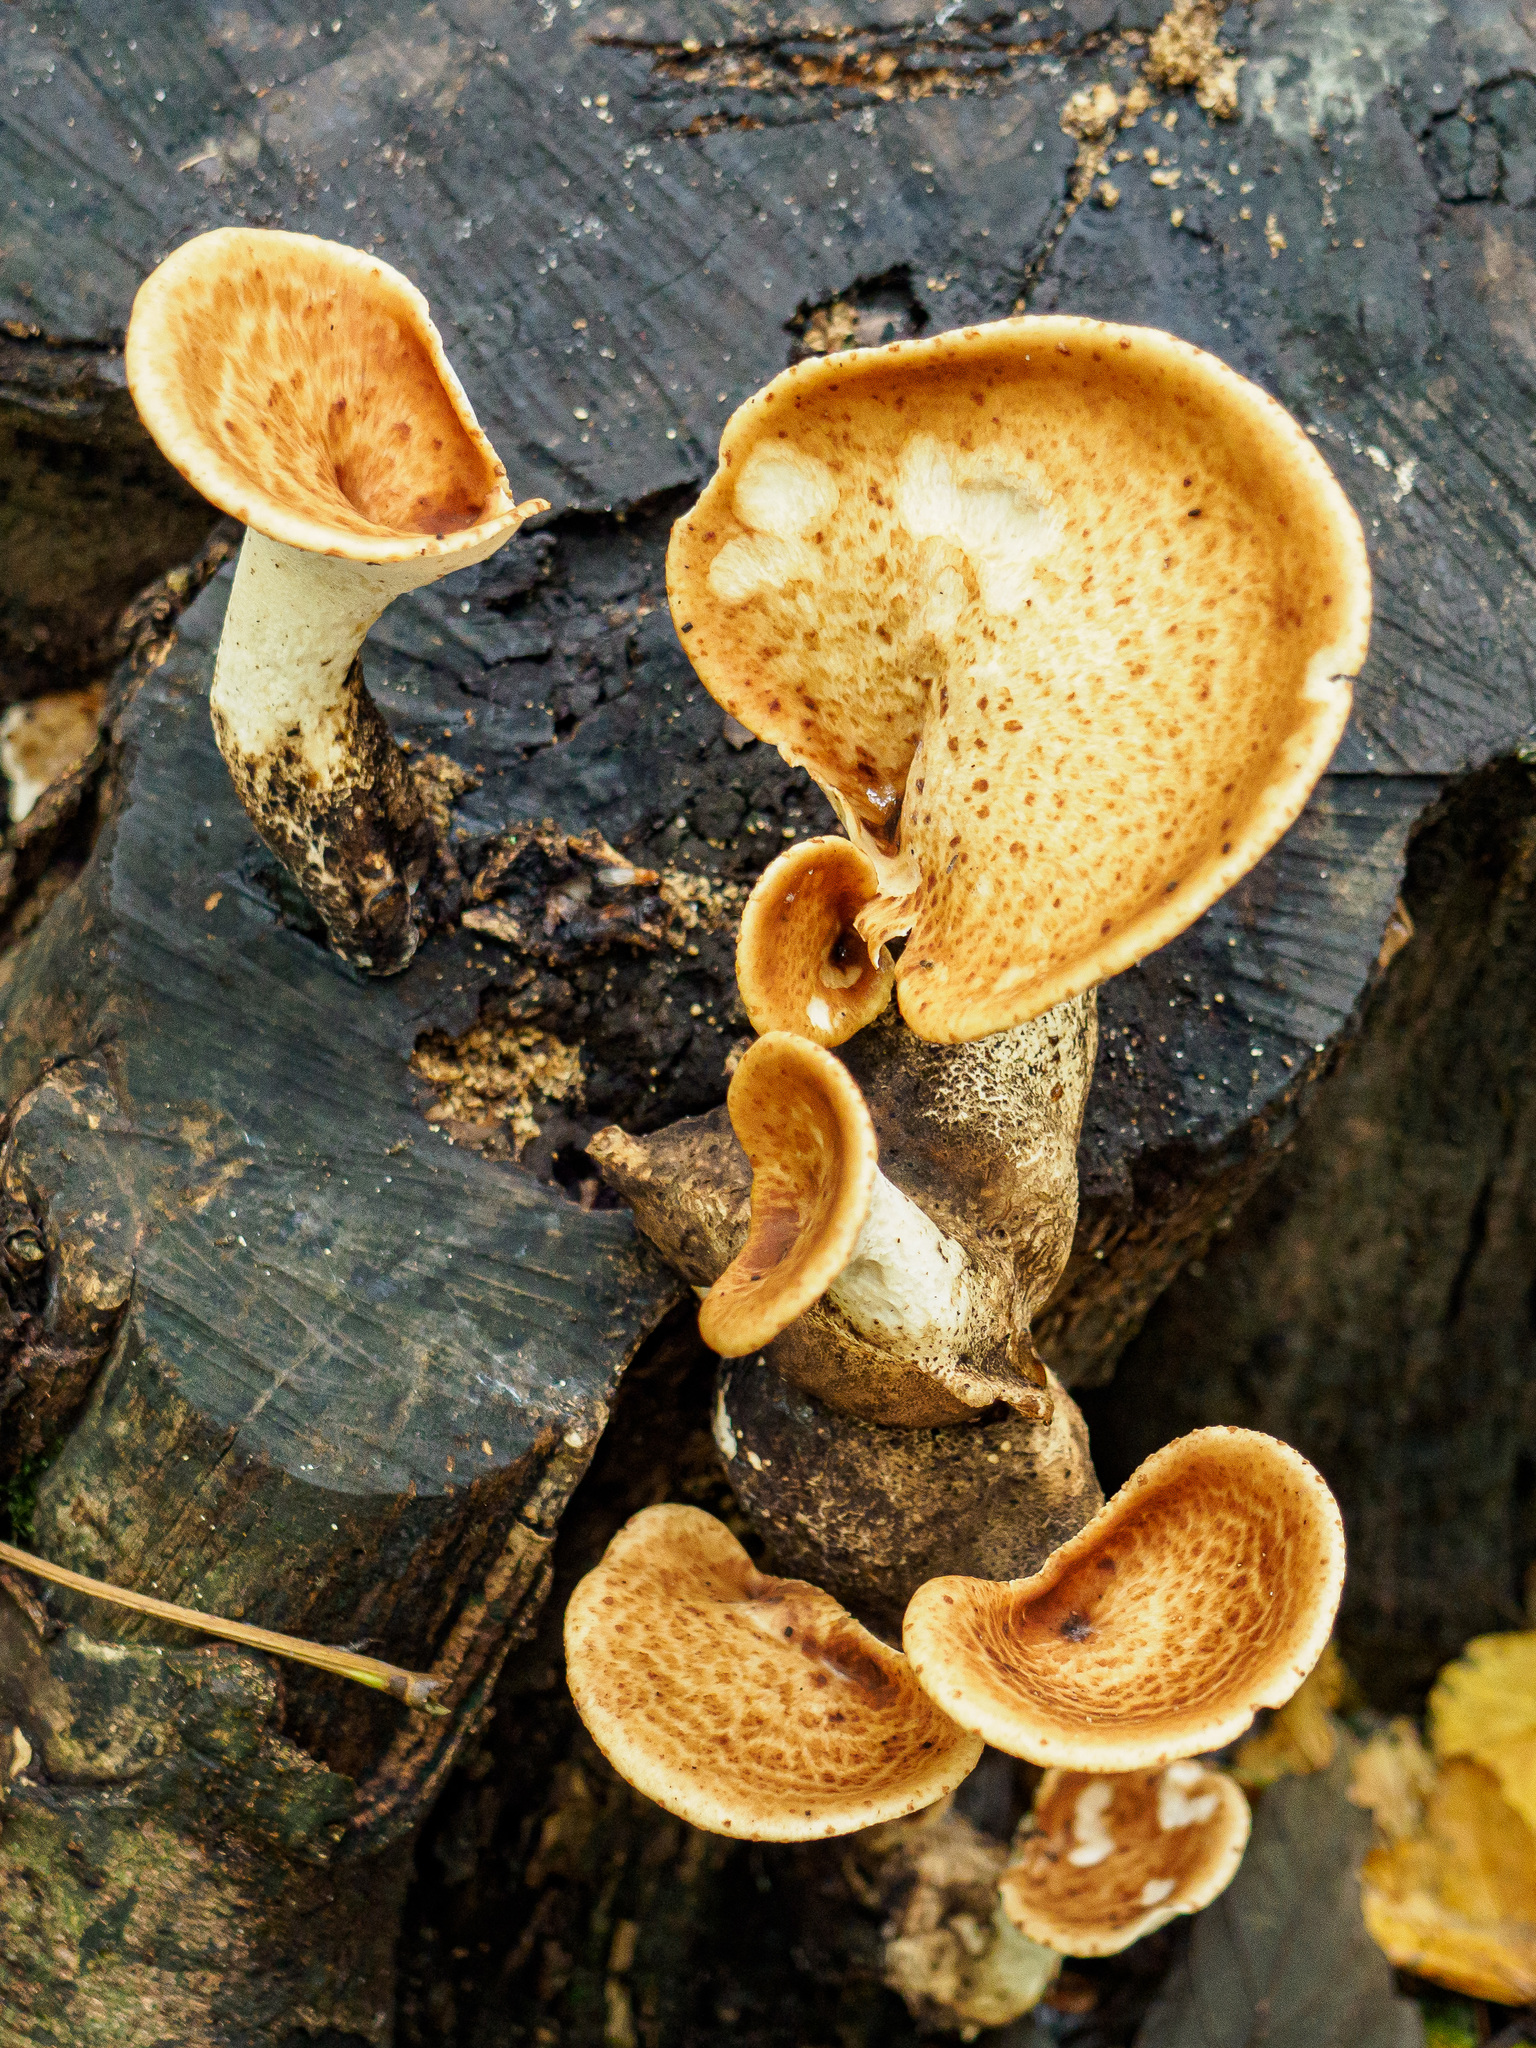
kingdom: Fungi
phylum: Basidiomycota
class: Agaricomycetes
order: Polyporales
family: Polyporaceae
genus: Cerioporus
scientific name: Cerioporus squamosus
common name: Dryad's saddle
